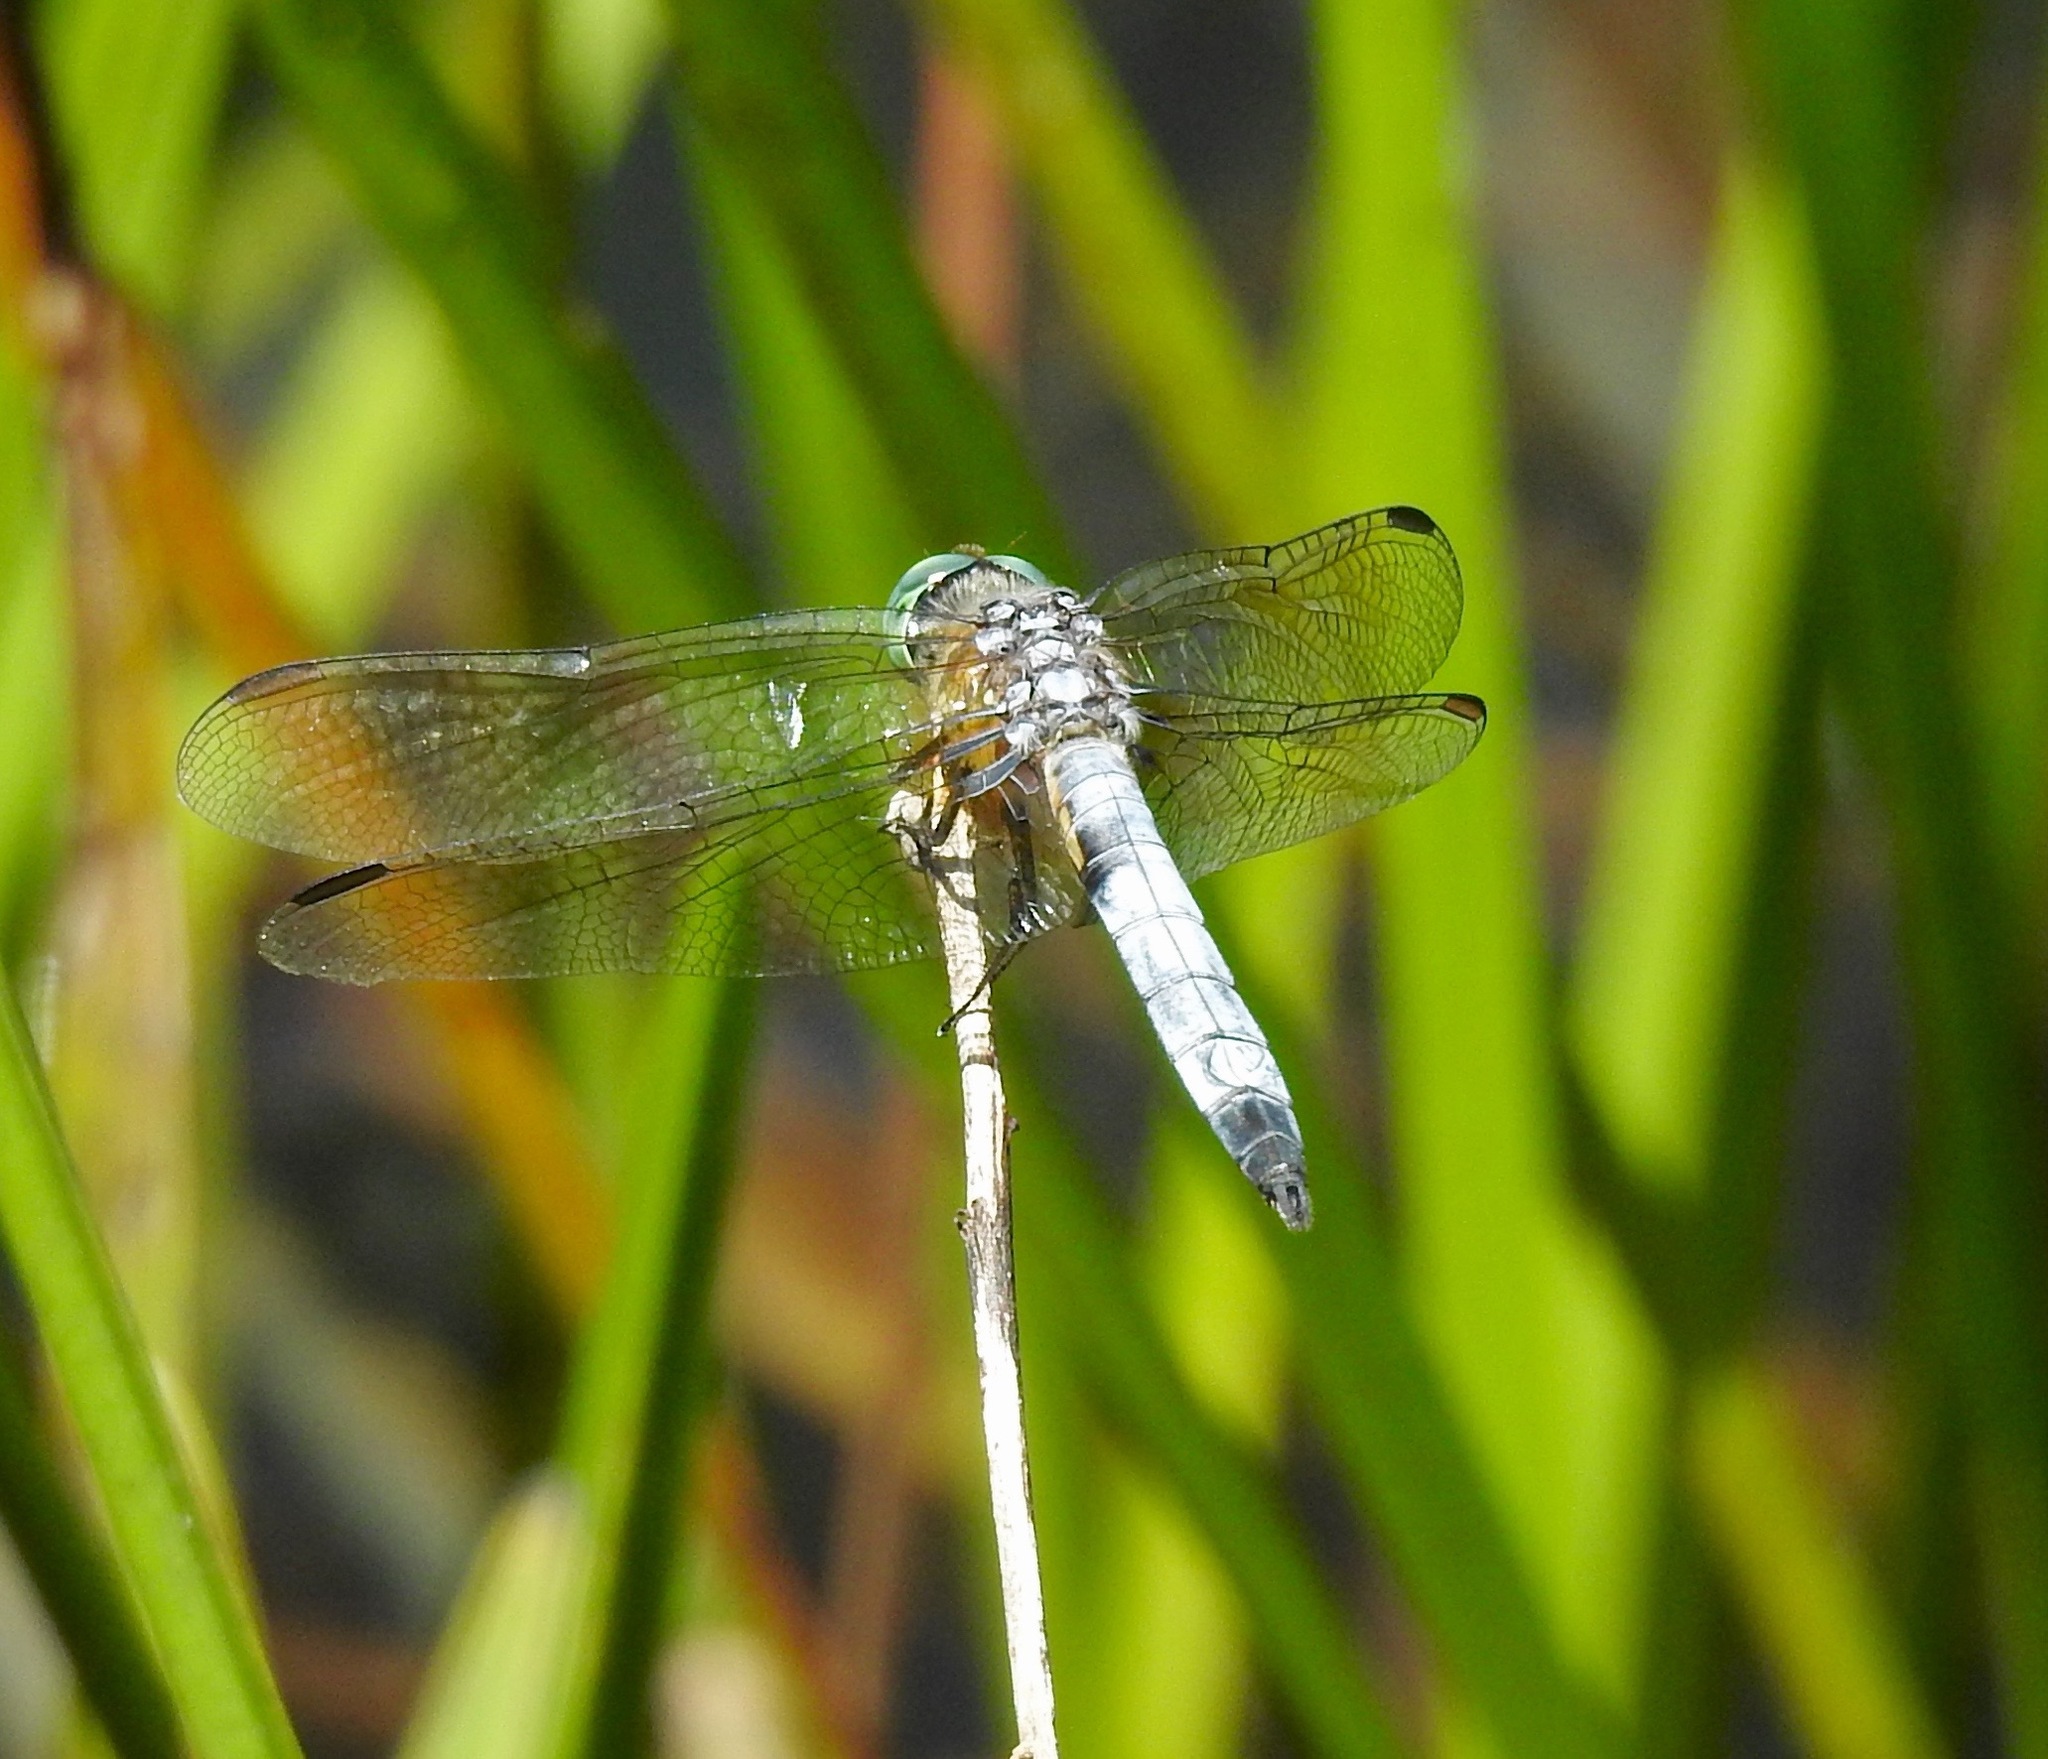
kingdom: Animalia
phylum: Arthropoda
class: Insecta
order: Odonata
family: Libellulidae
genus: Pachydiplax
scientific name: Pachydiplax longipennis
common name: Blue dasher
